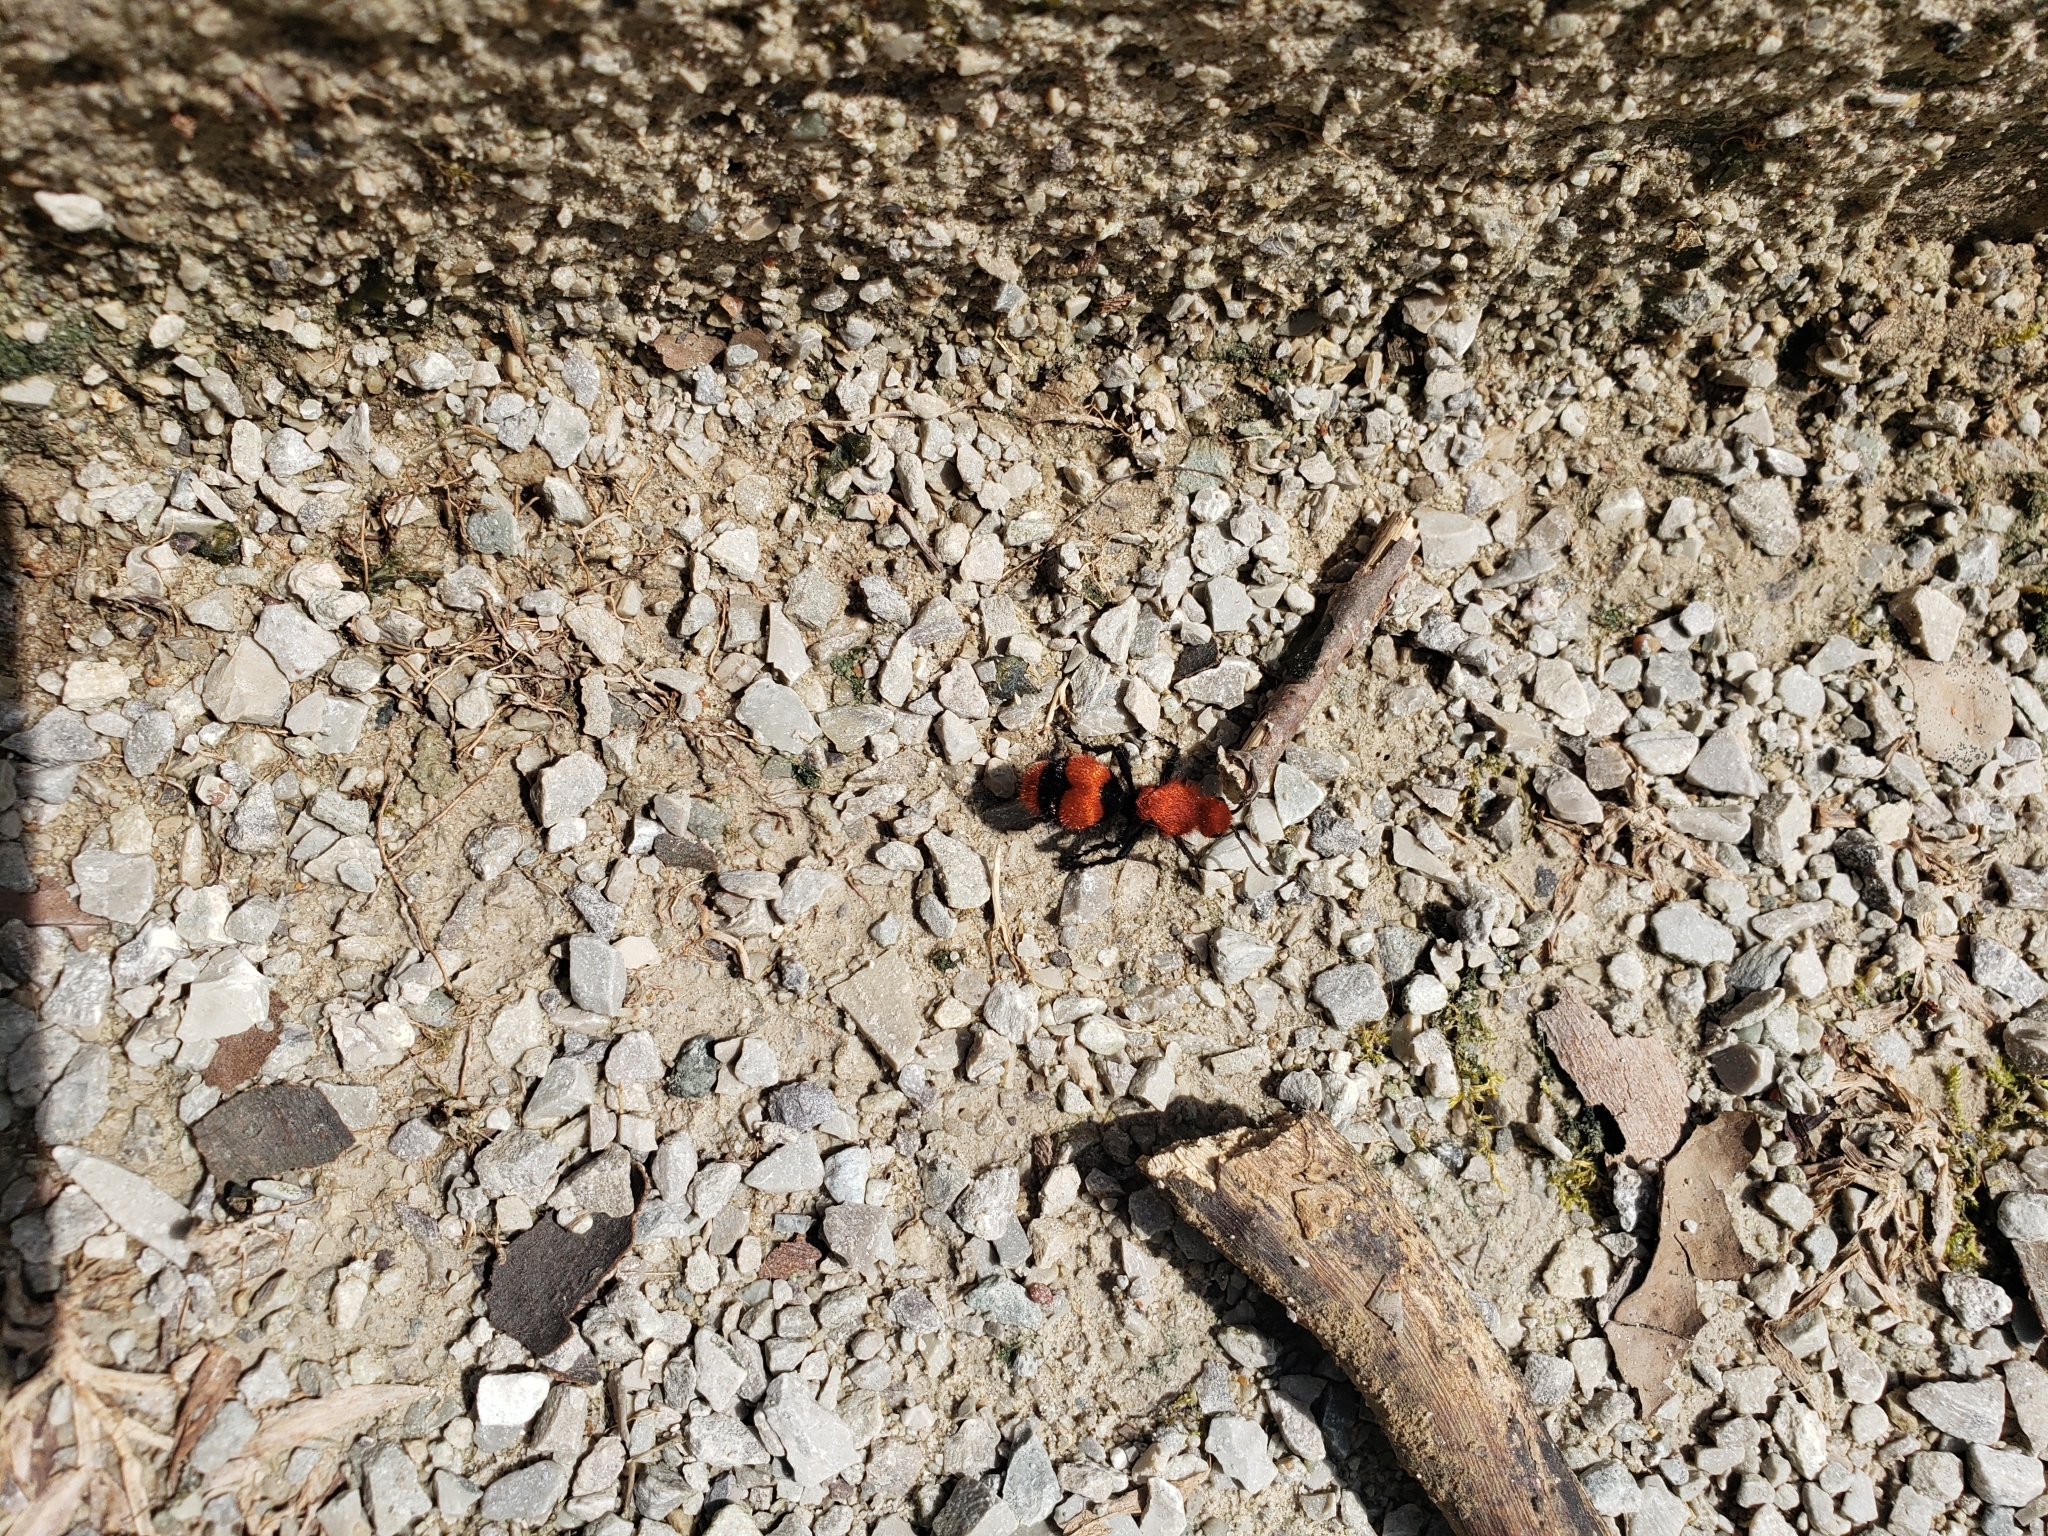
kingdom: Animalia
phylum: Arthropoda
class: Insecta
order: Hymenoptera
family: Mutillidae
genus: Dasymutilla
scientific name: Dasymutilla occidentalis
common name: Common eastern velvet ant
